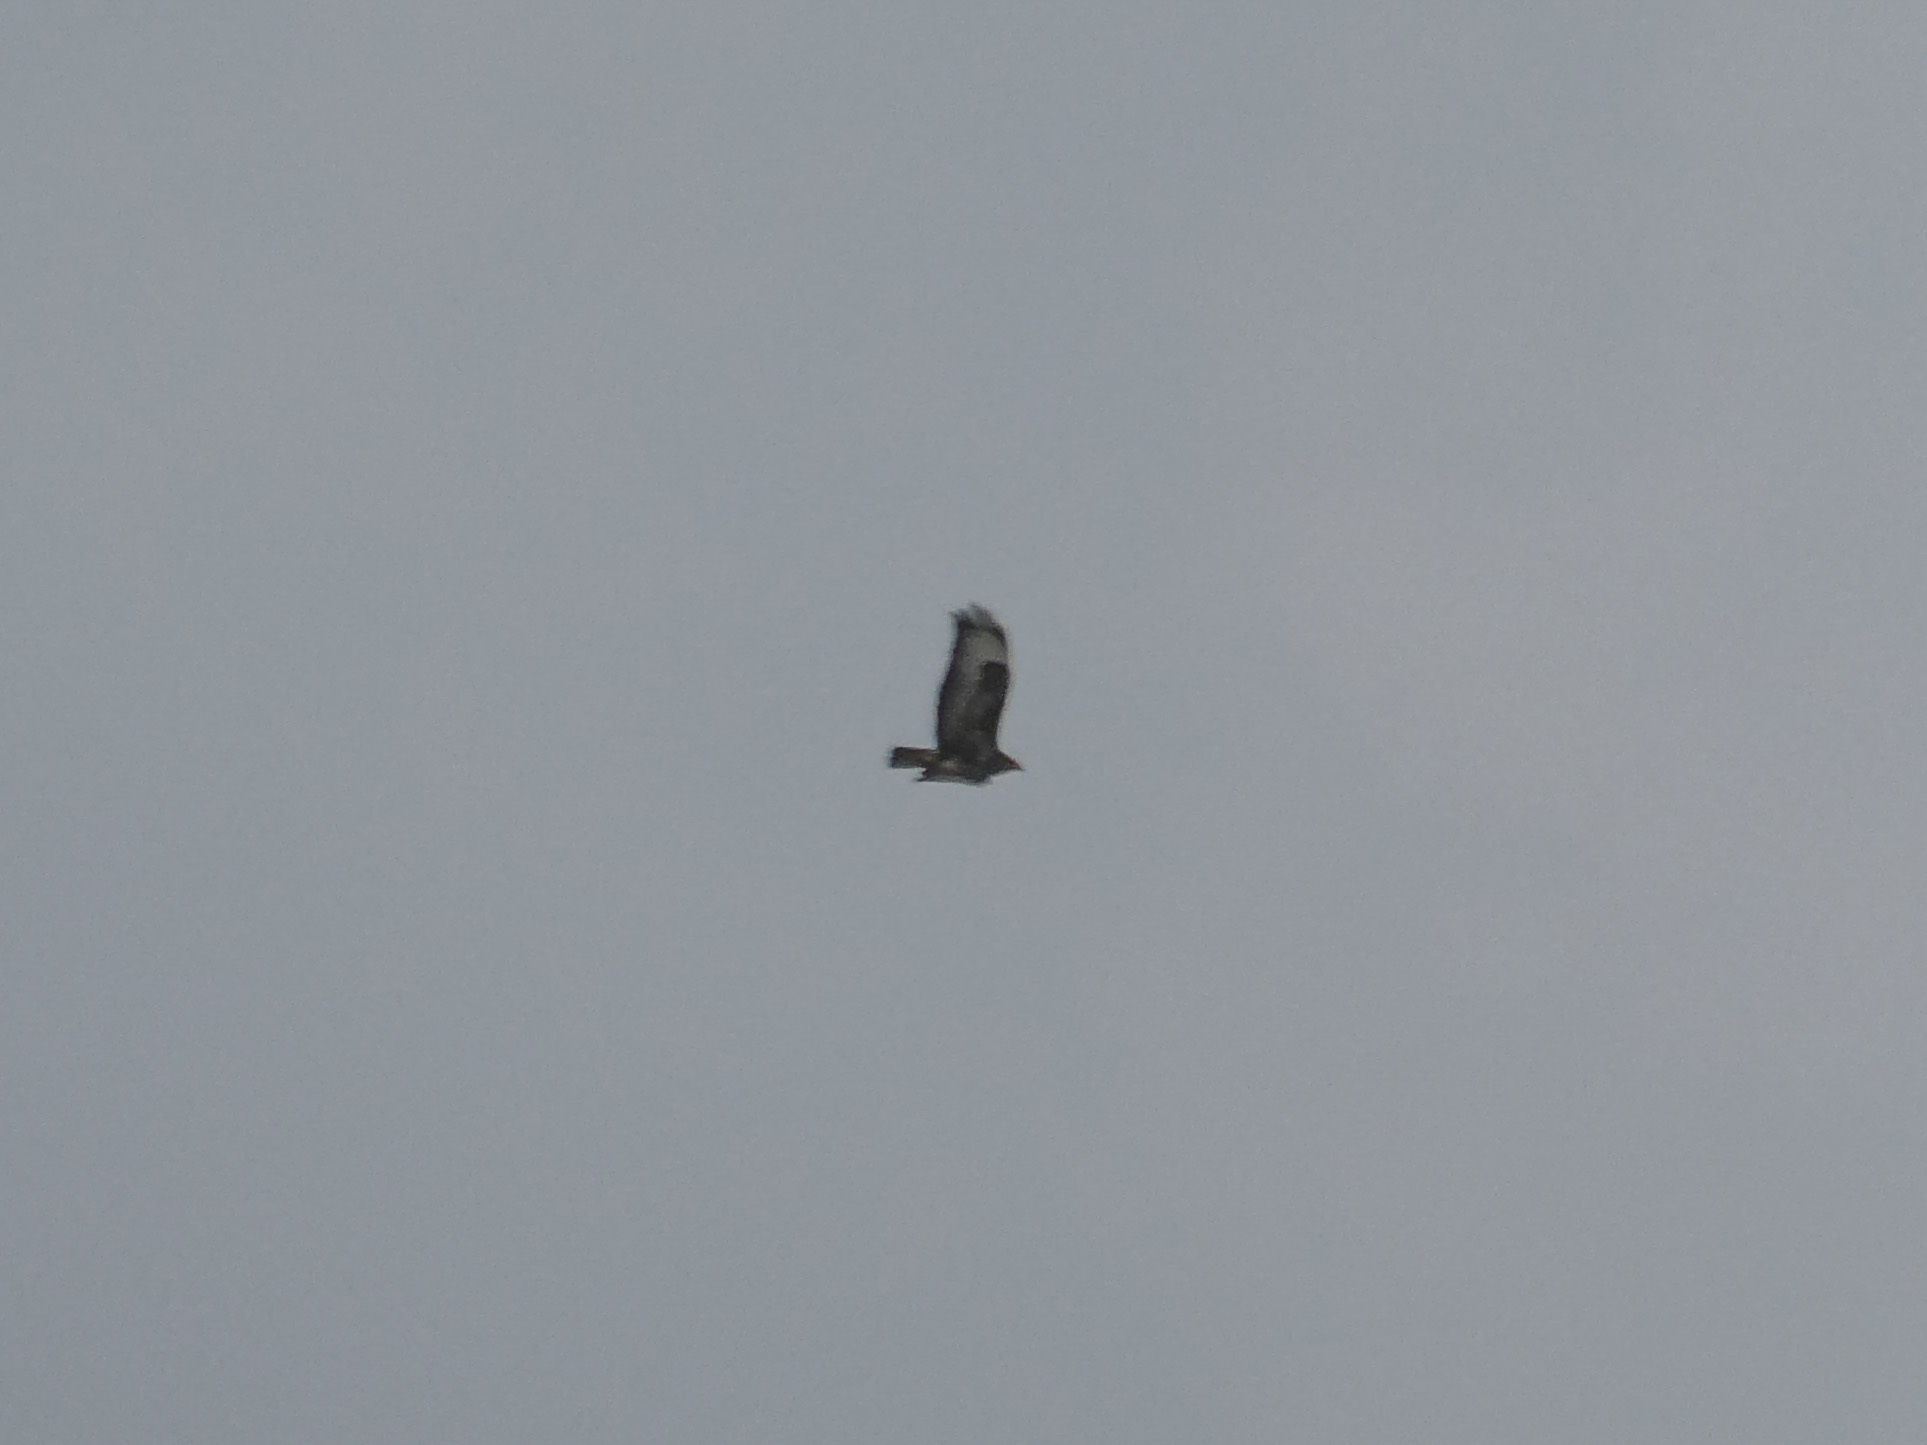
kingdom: Animalia
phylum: Chordata
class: Aves
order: Accipitriformes
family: Accipitridae
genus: Buteo
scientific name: Buteo buteo
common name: Common buzzard
